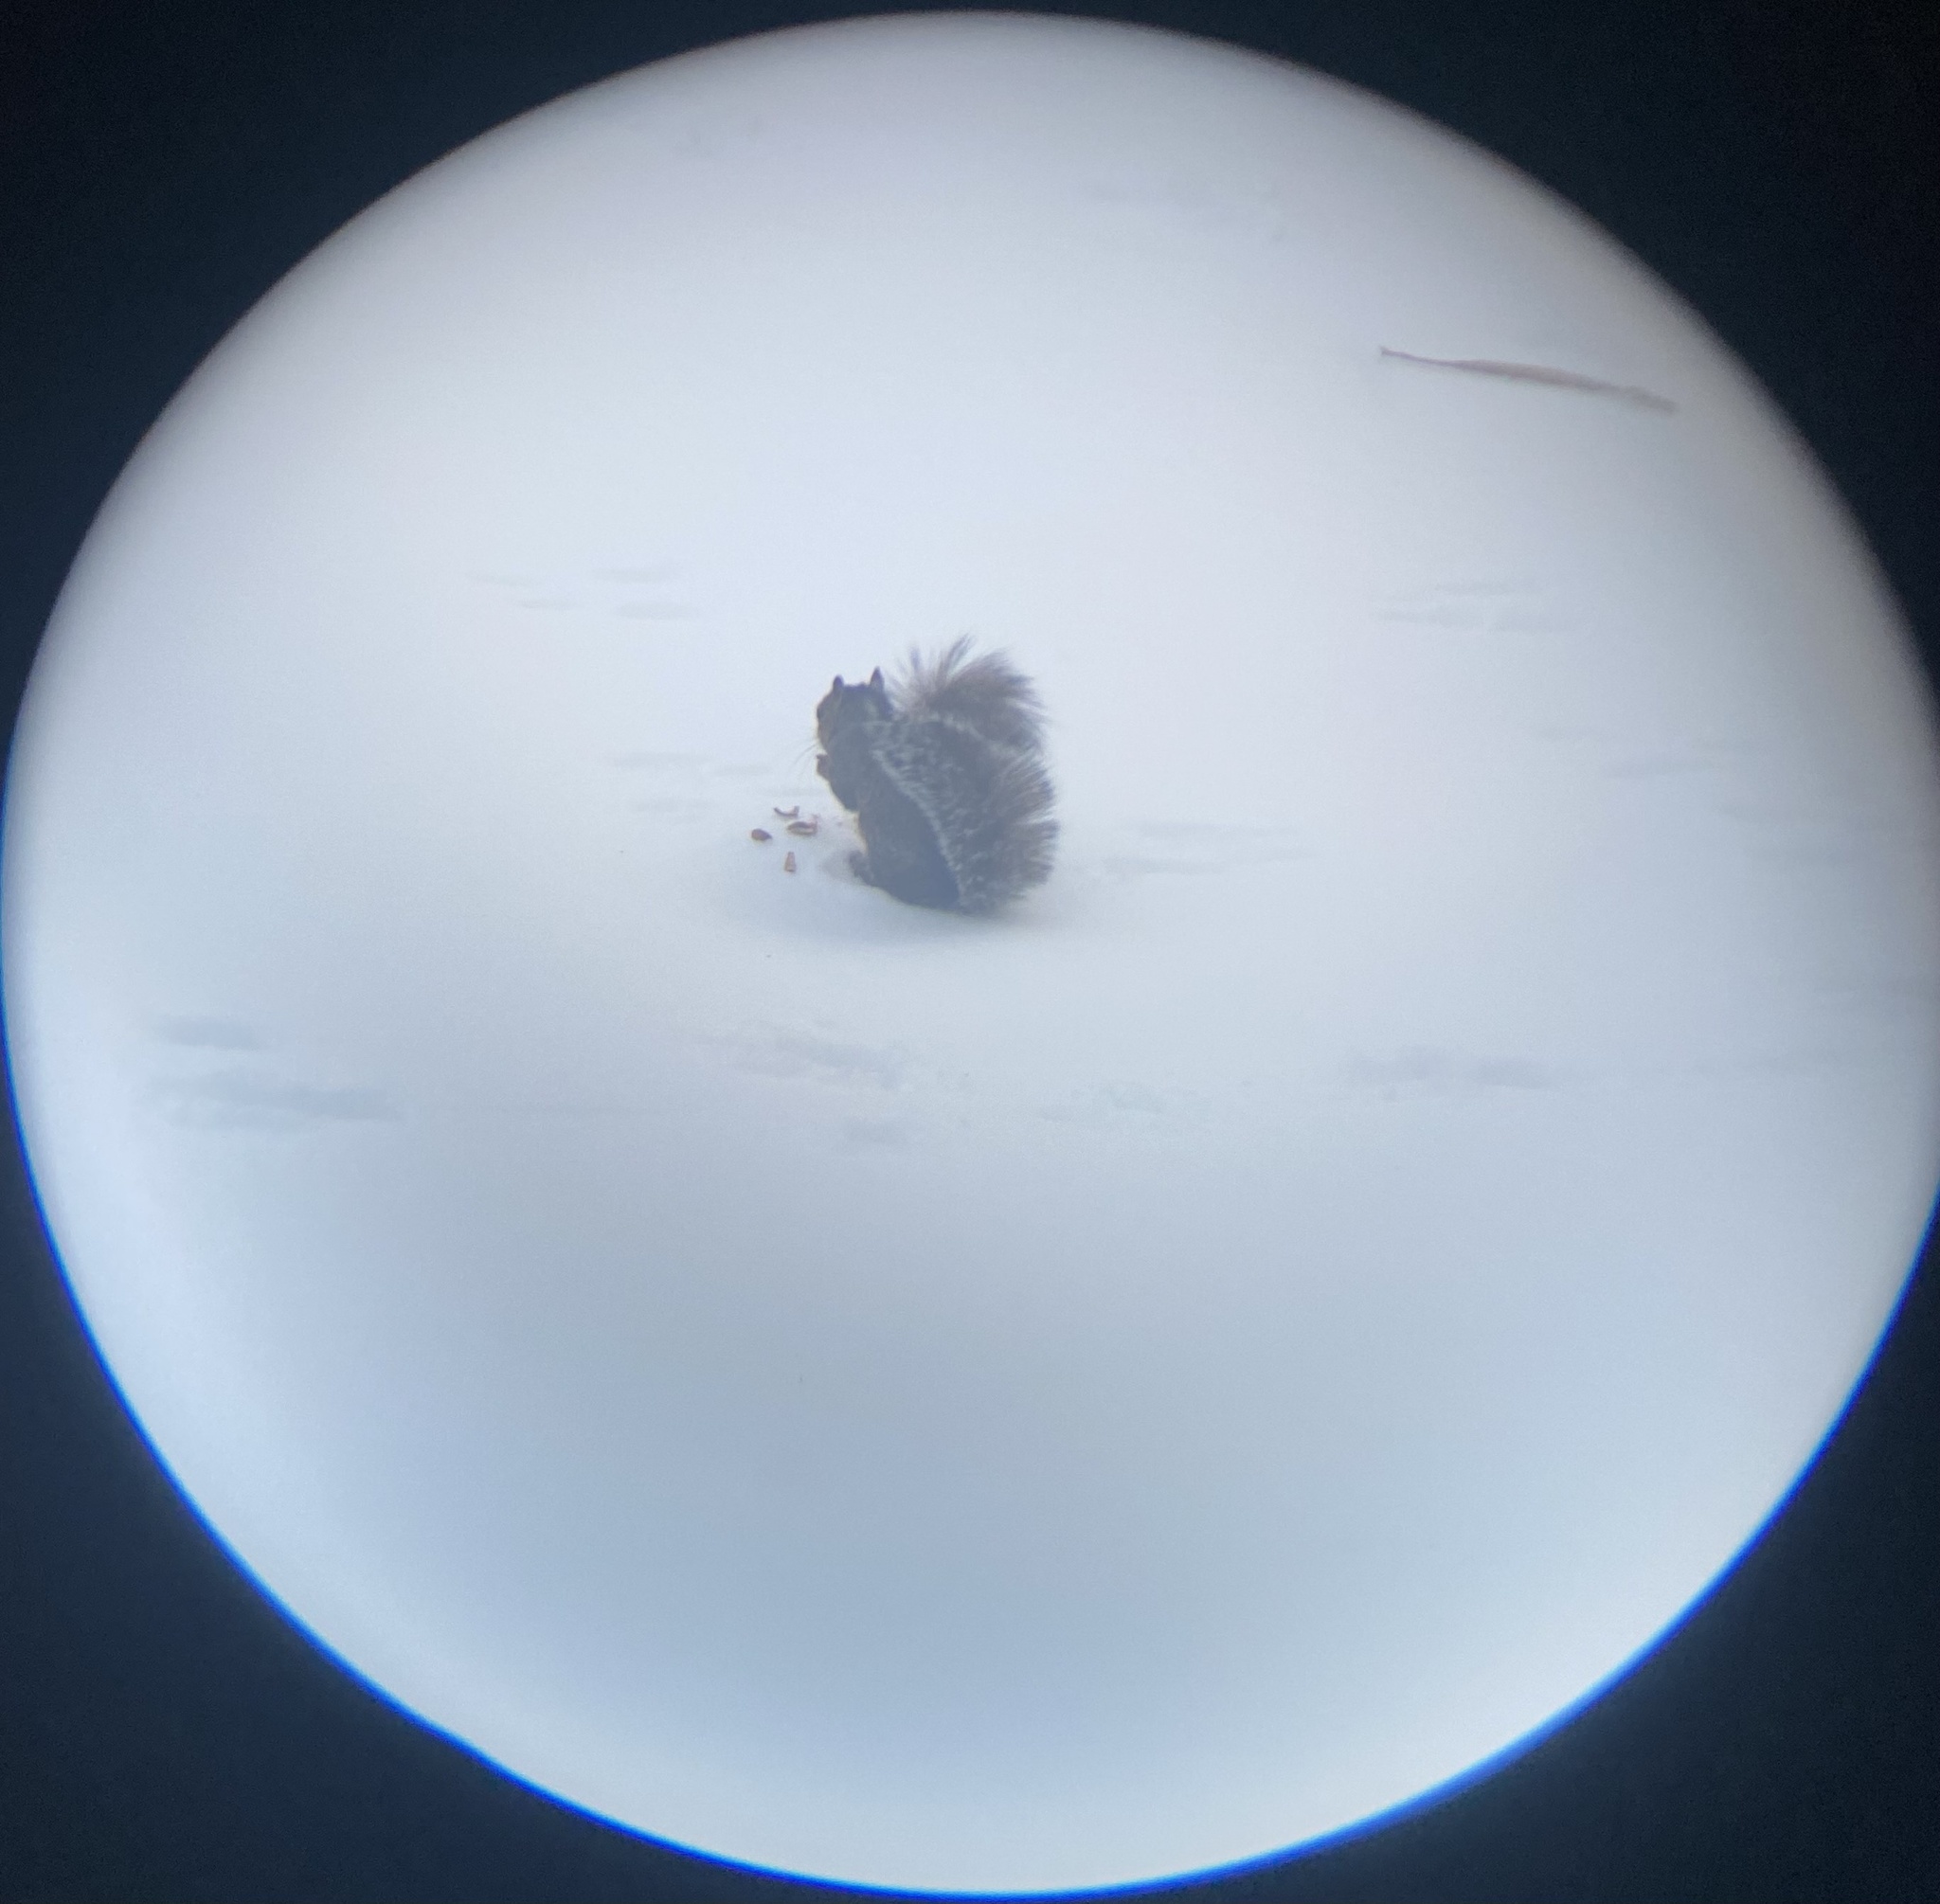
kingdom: Animalia
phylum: Chordata
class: Mammalia
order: Rodentia
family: Sciuridae
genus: Sciurus
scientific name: Sciurus carolinensis
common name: Eastern gray squirrel
